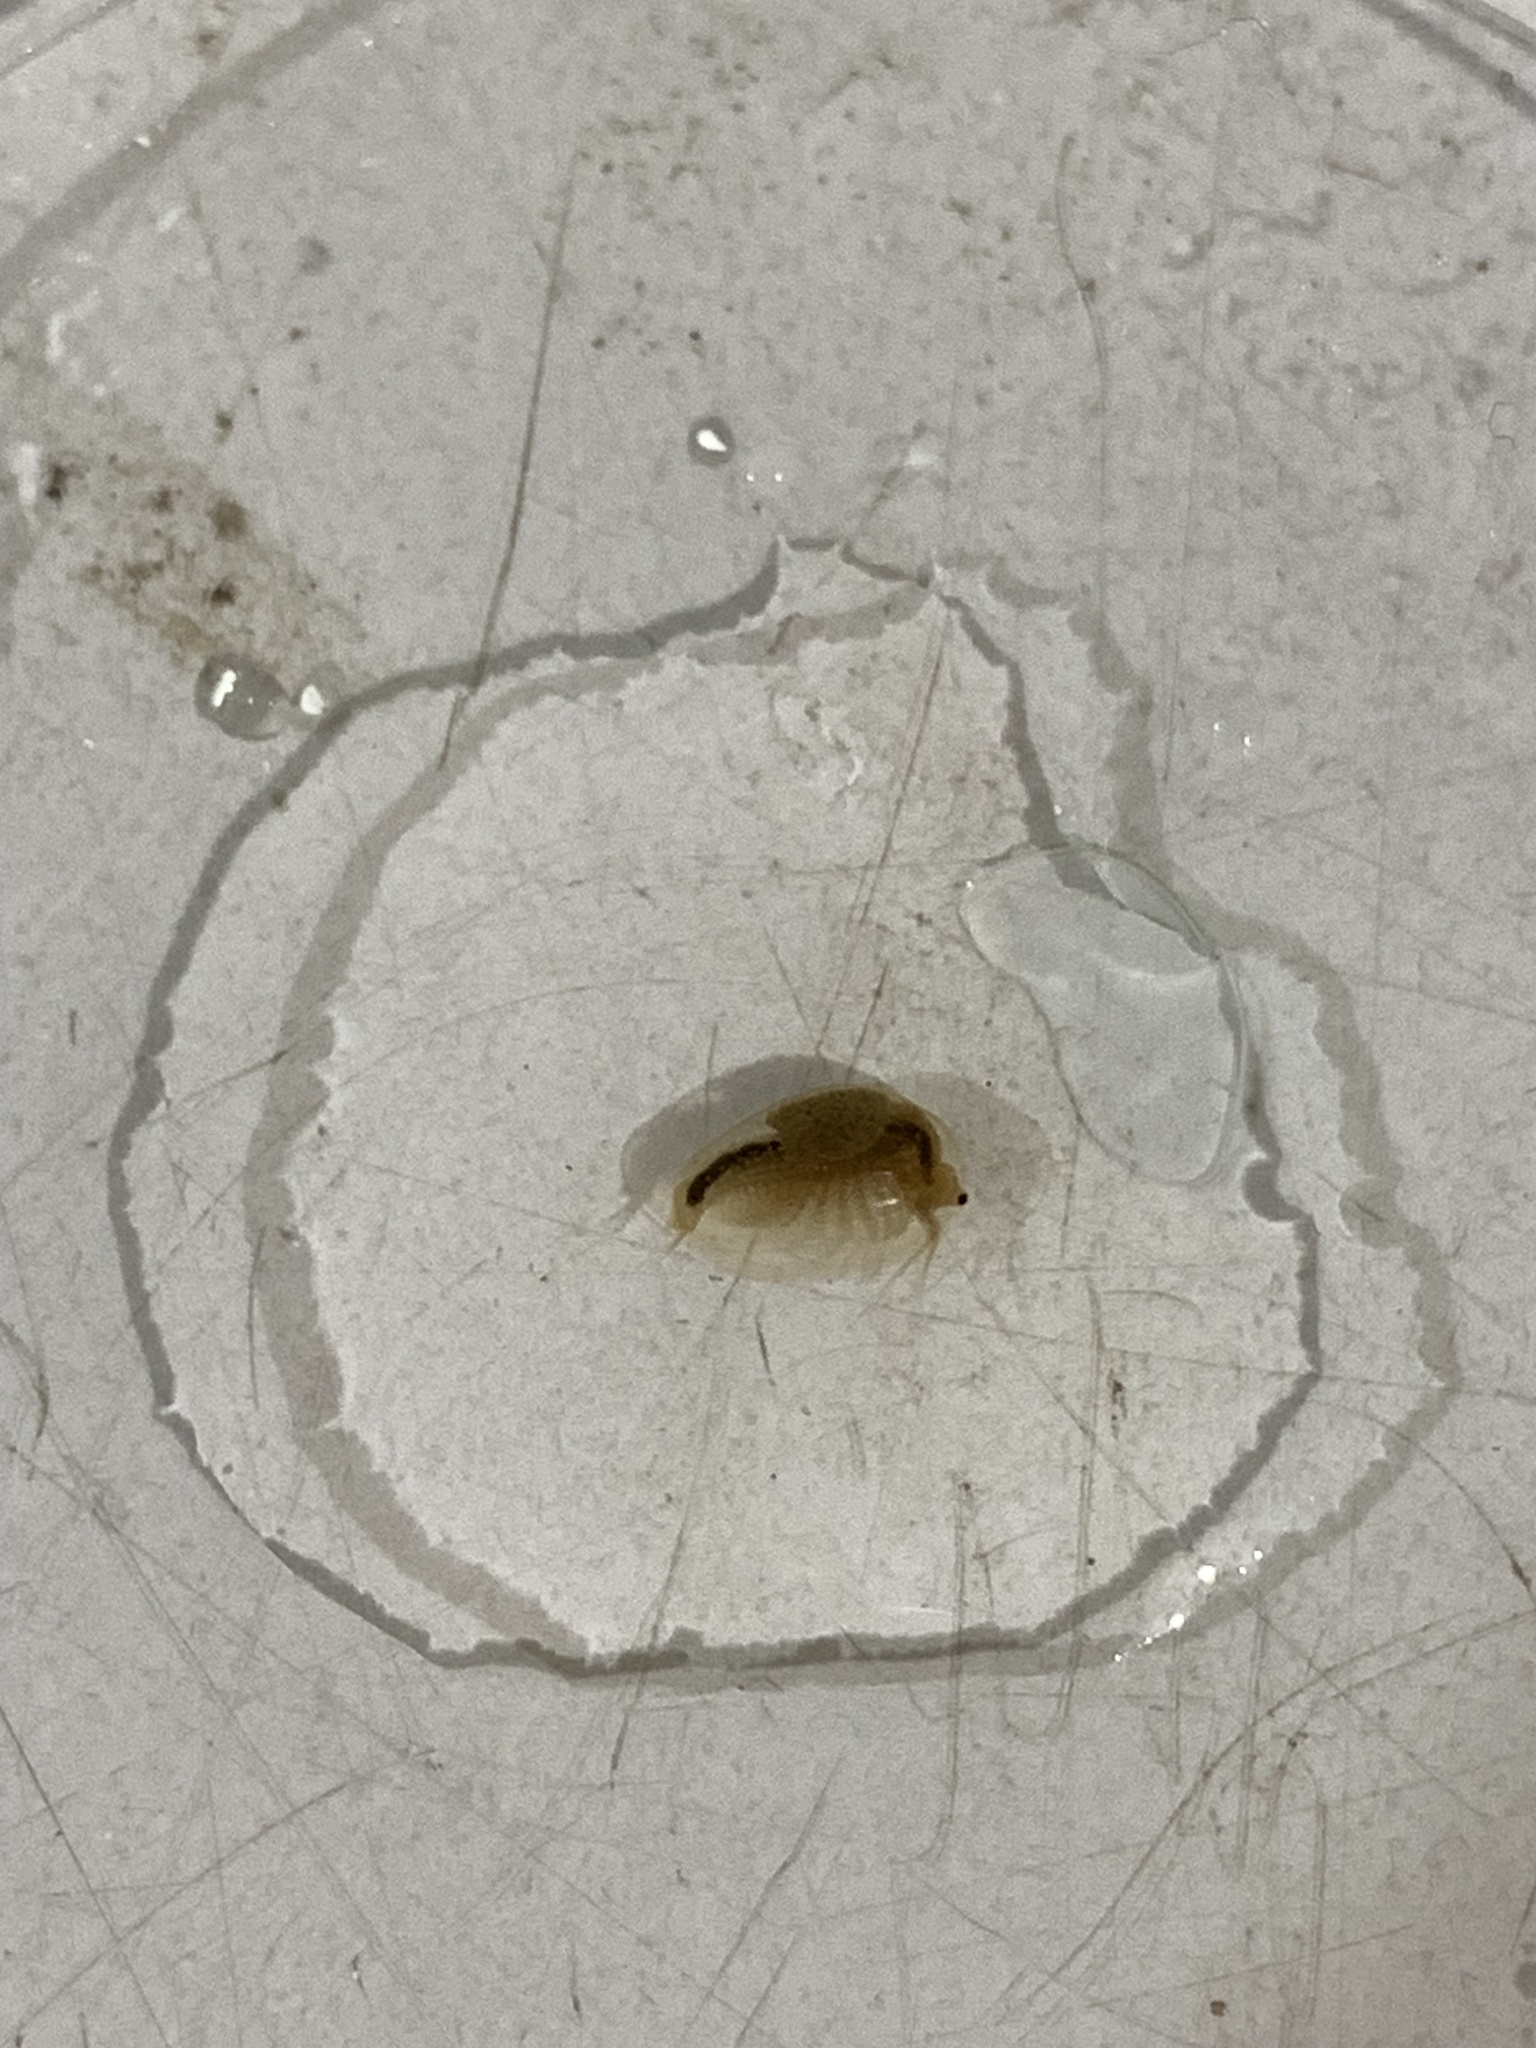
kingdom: Animalia
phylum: Arthropoda
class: Branchiopoda
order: Diplostraca
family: Limnadiidae
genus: Eulimnadia
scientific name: Eulimnadia agassizii
